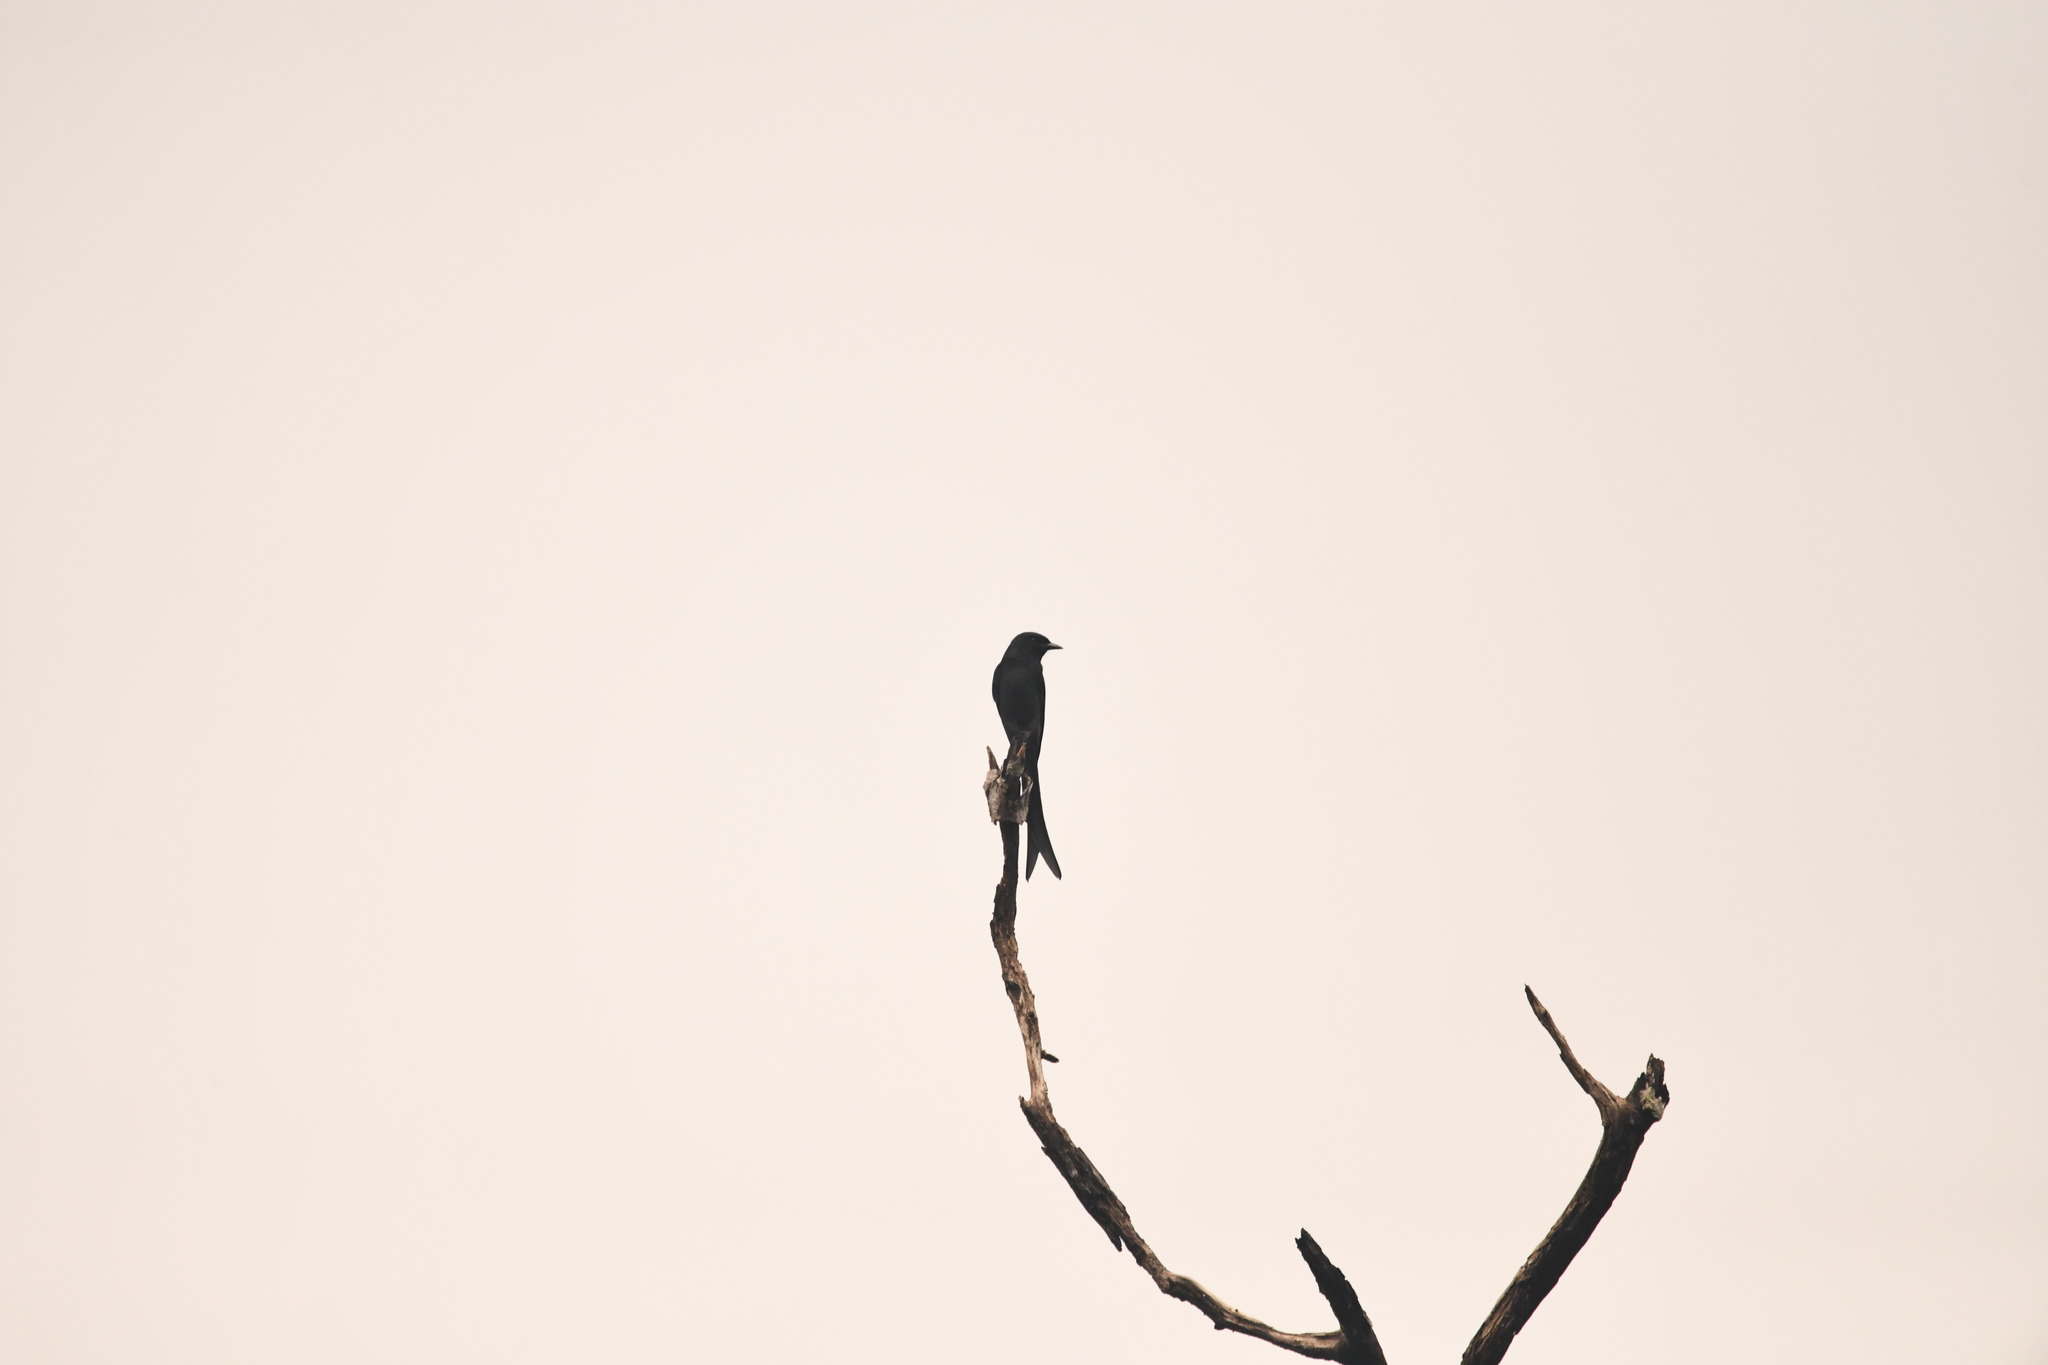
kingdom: Animalia
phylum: Chordata
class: Aves
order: Passeriformes
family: Dicruridae
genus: Dicrurus
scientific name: Dicrurus macrocercus
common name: Black drongo
